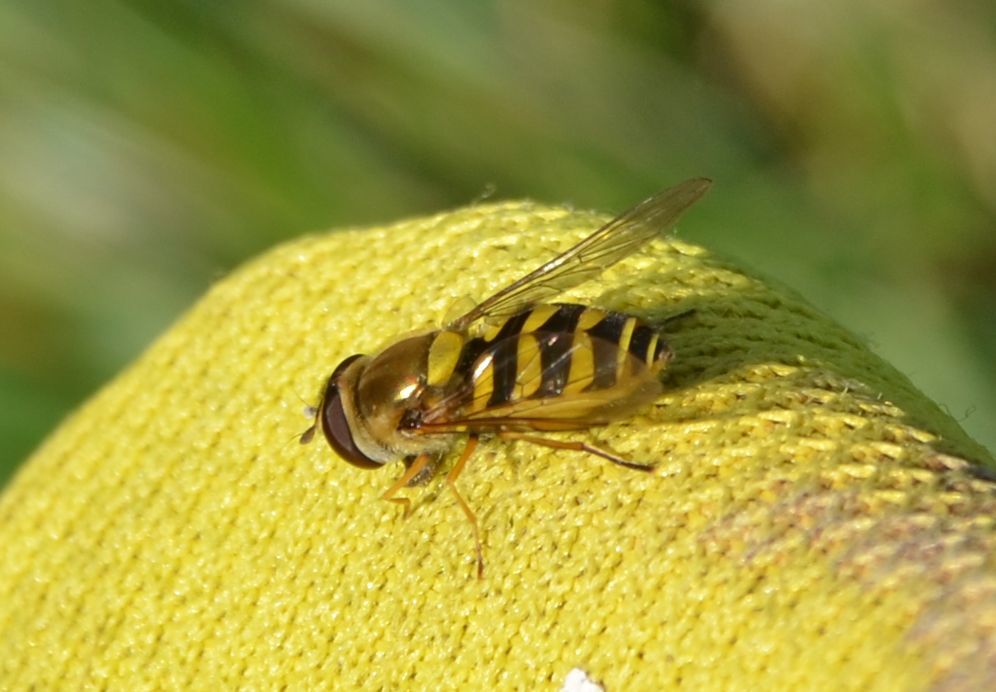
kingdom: Animalia
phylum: Arthropoda
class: Insecta
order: Diptera
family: Syrphidae
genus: Syrphus
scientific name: Syrphus
